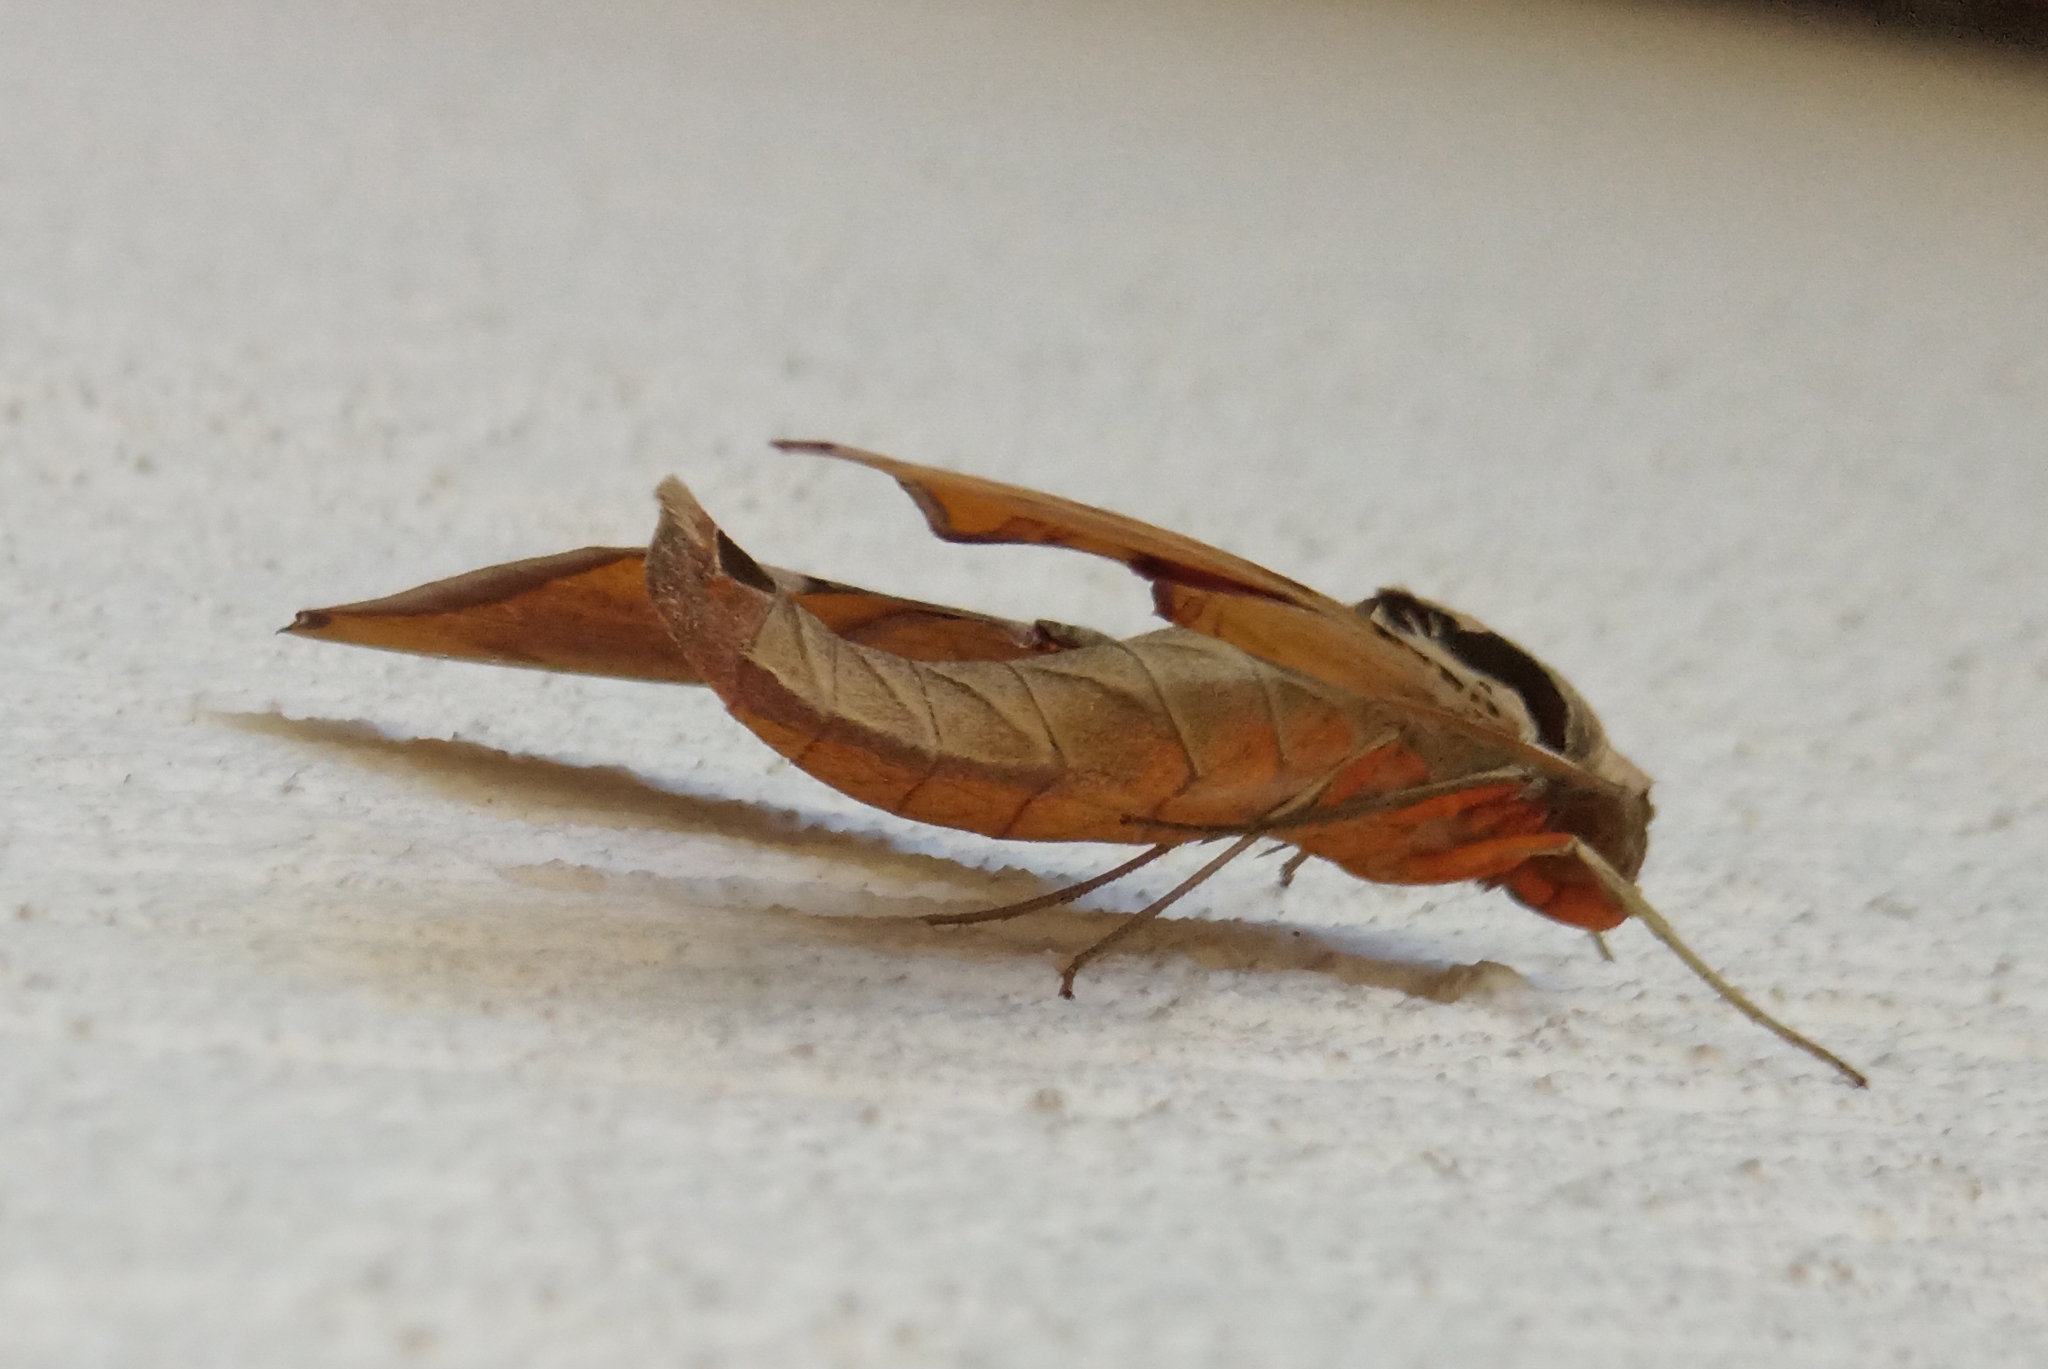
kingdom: Animalia
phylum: Arthropoda
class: Insecta
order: Lepidoptera
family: Sphingidae
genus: Protambulyx
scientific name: Protambulyx strigilis
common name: Streaked sphinx
